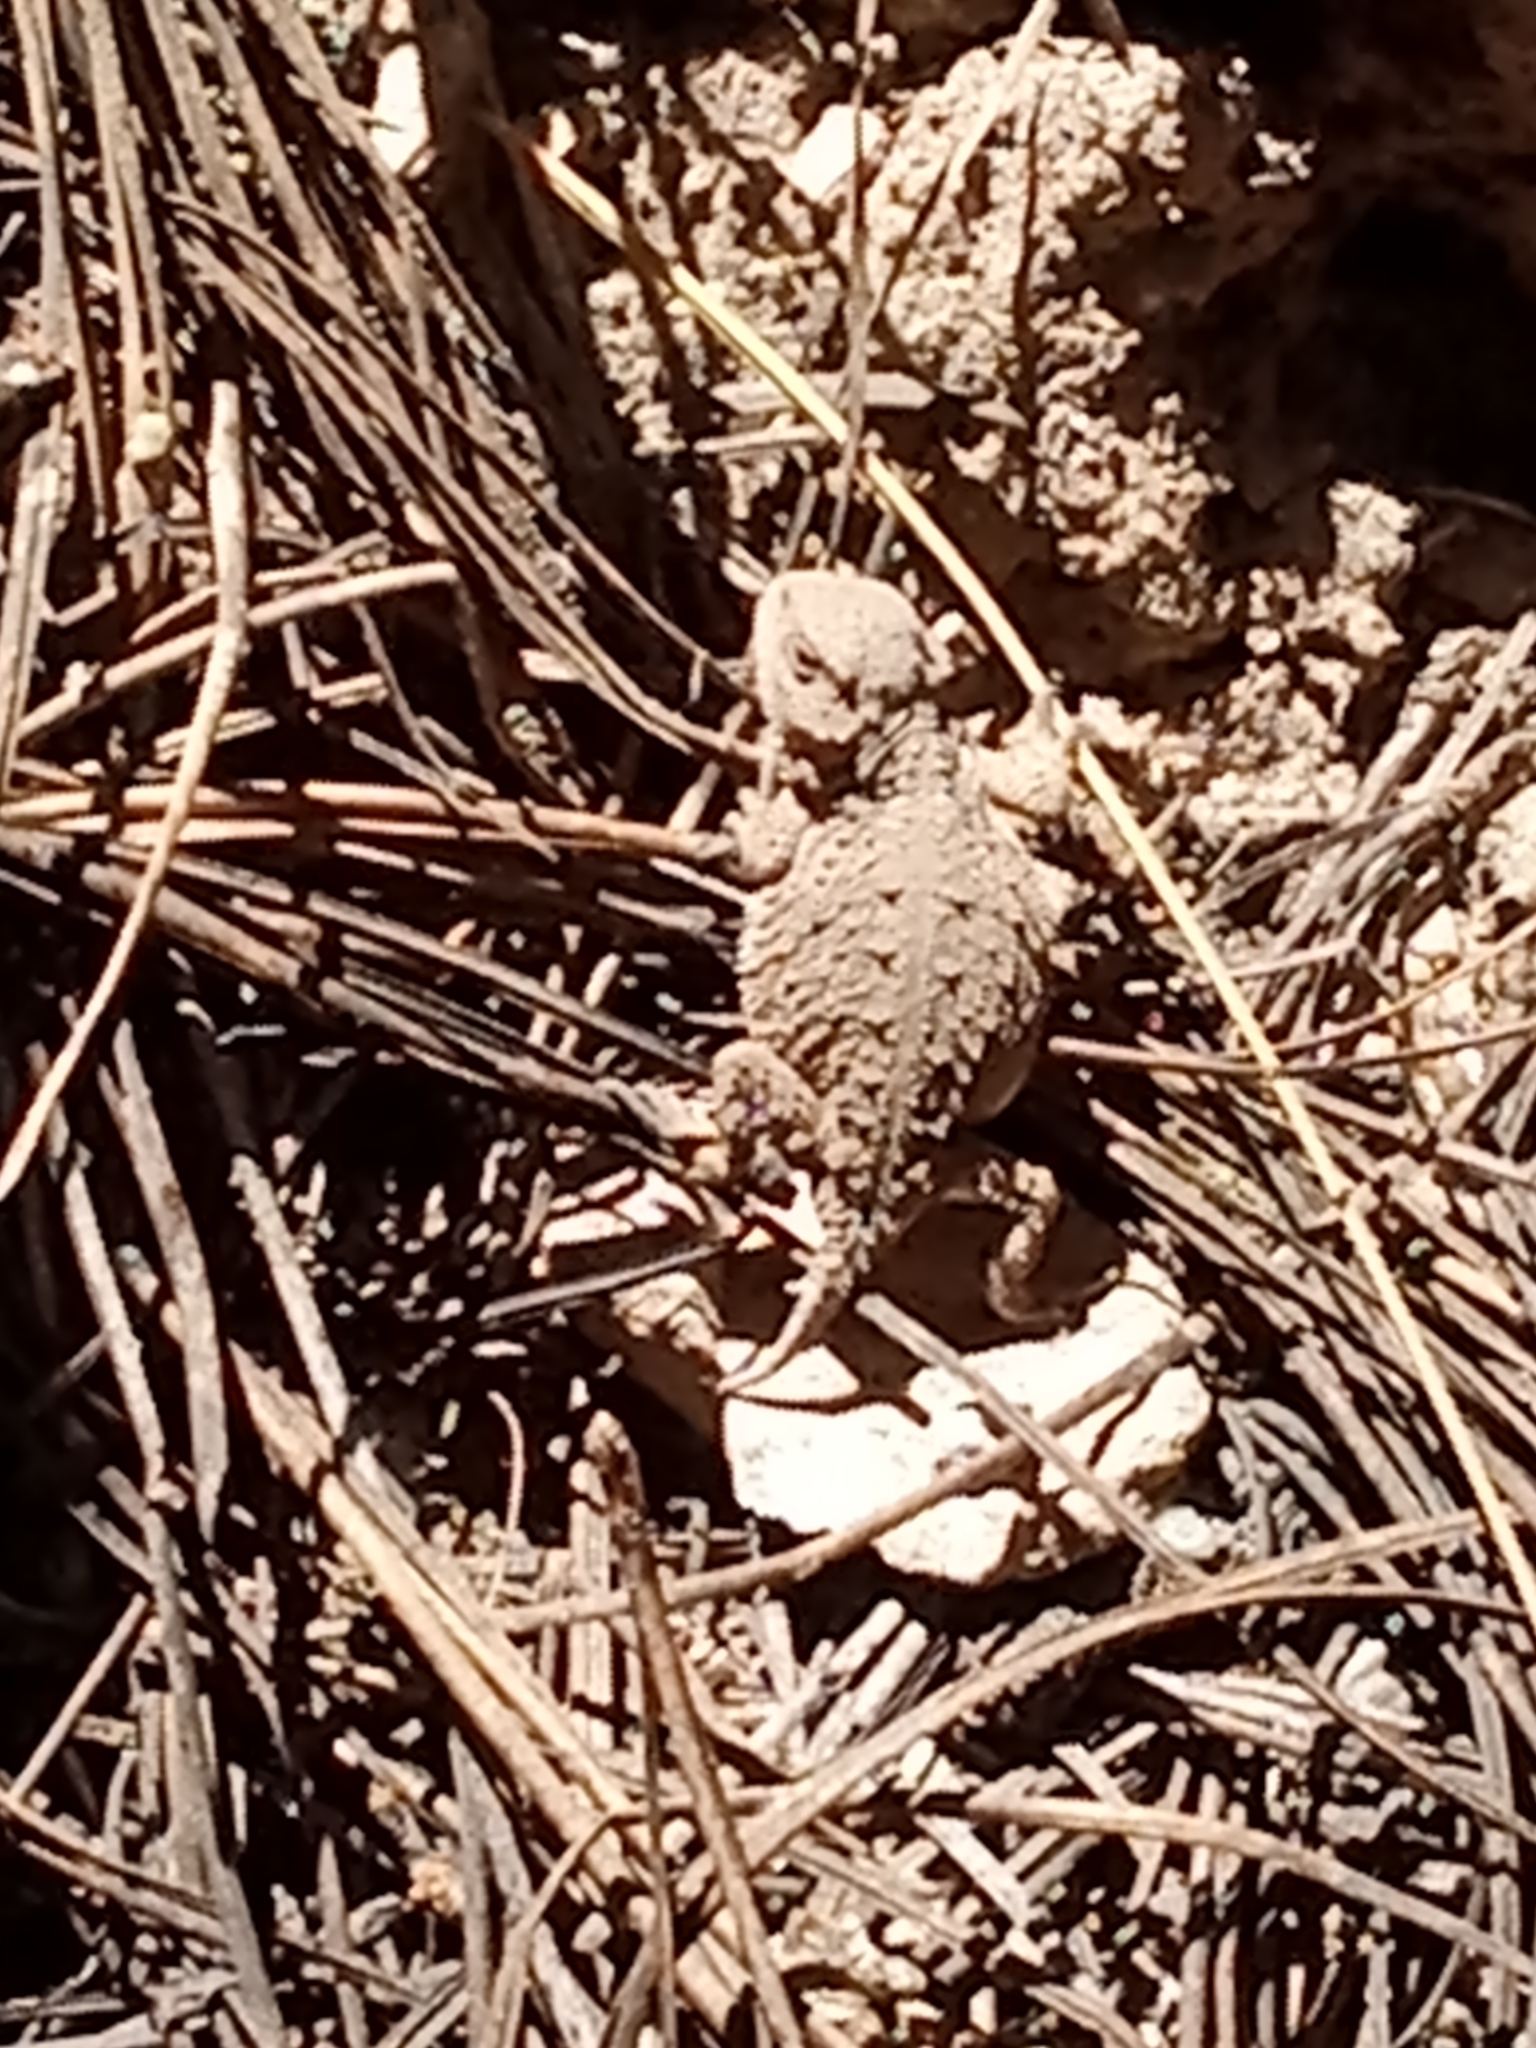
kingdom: Animalia
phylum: Chordata
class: Squamata
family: Phrynosomatidae
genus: Phrynosoma
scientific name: Phrynosoma hernandesi
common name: Greater short-horned lizard
